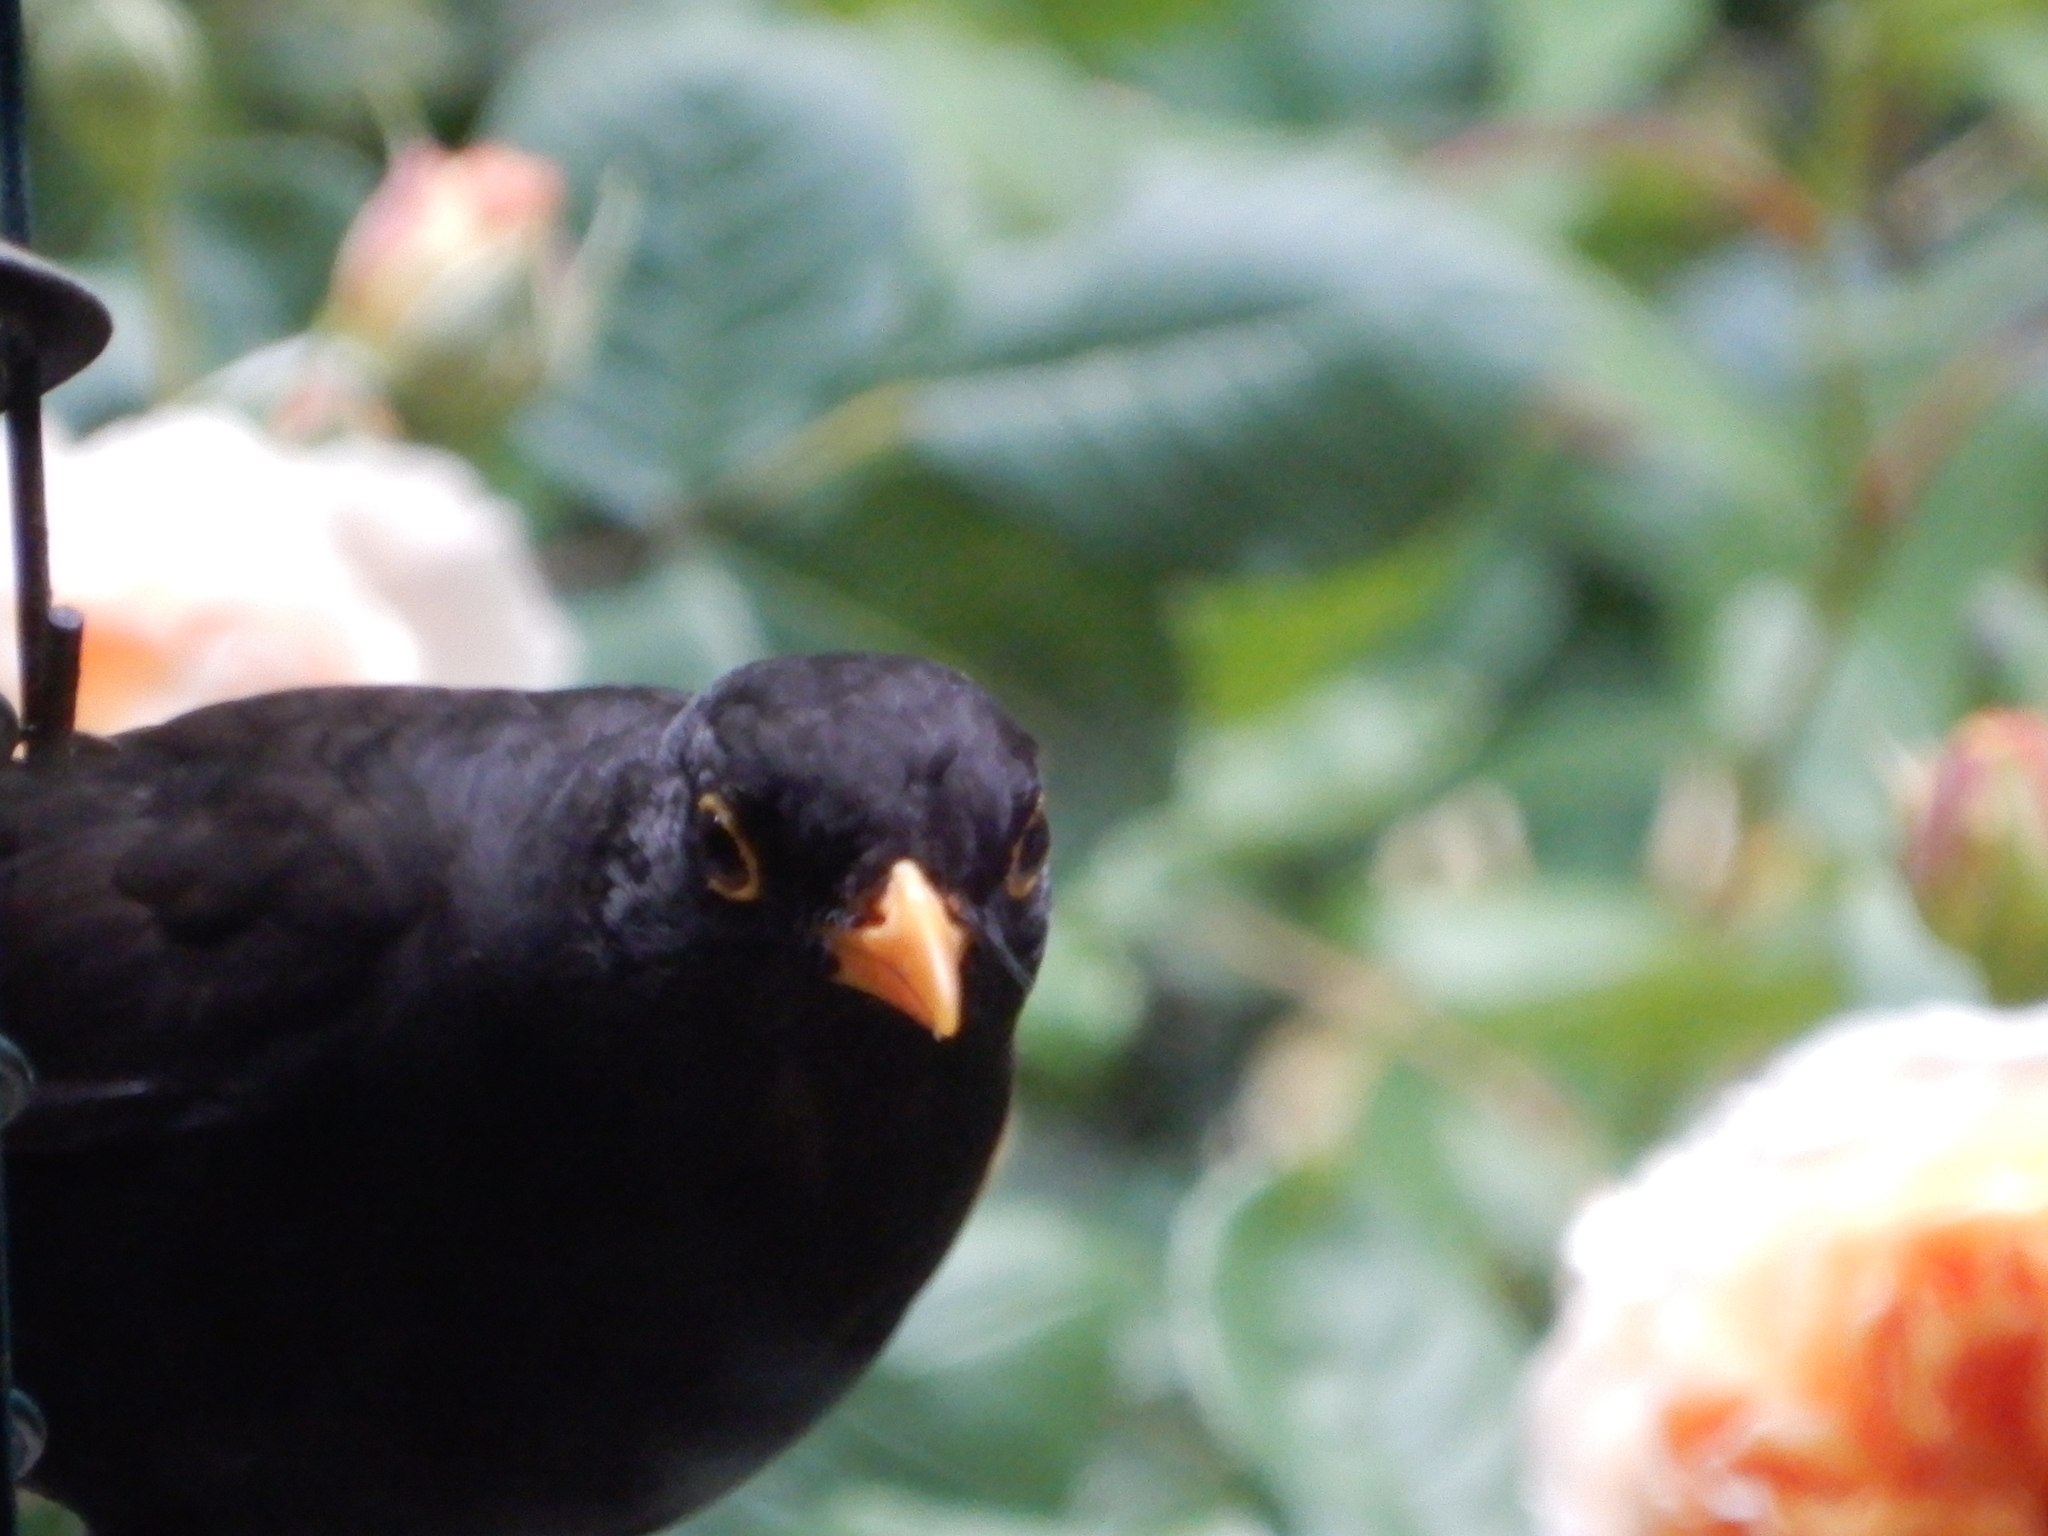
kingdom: Animalia
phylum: Chordata
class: Aves
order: Passeriformes
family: Turdidae
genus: Turdus
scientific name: Turdus merula
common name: Common blackbird
